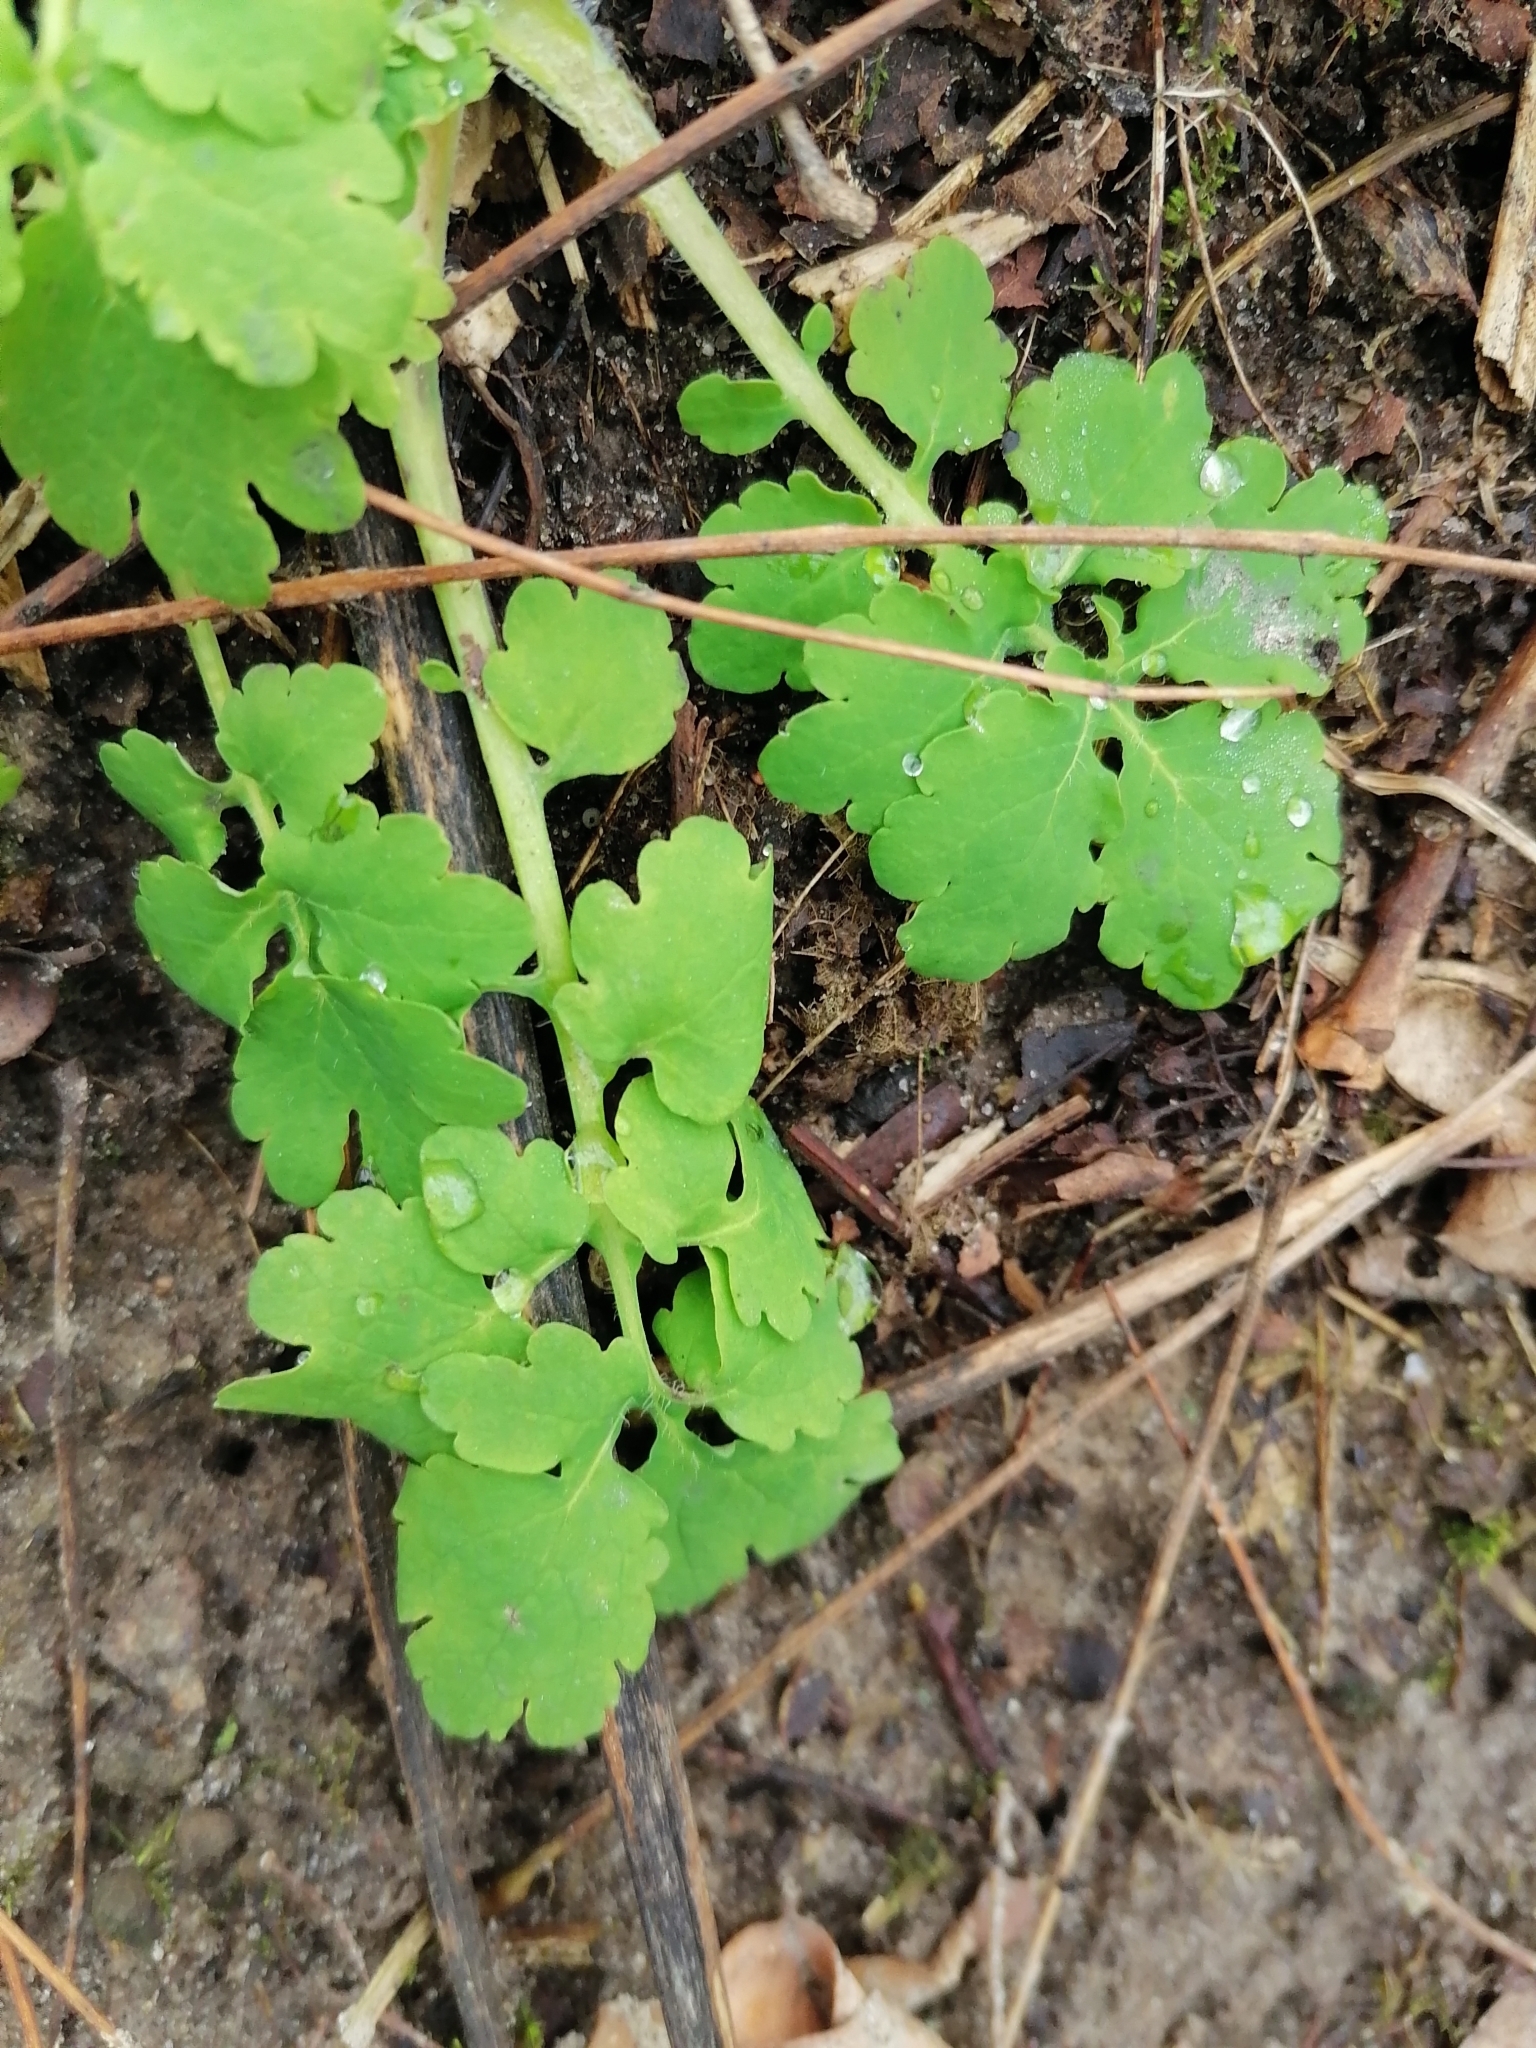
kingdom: Plantae
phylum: Tracheophyta
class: Magnoliopsida
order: Ranunculales
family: Papaveraceae
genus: Chelidonium
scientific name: Chelidonium majus
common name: Greater celandine
